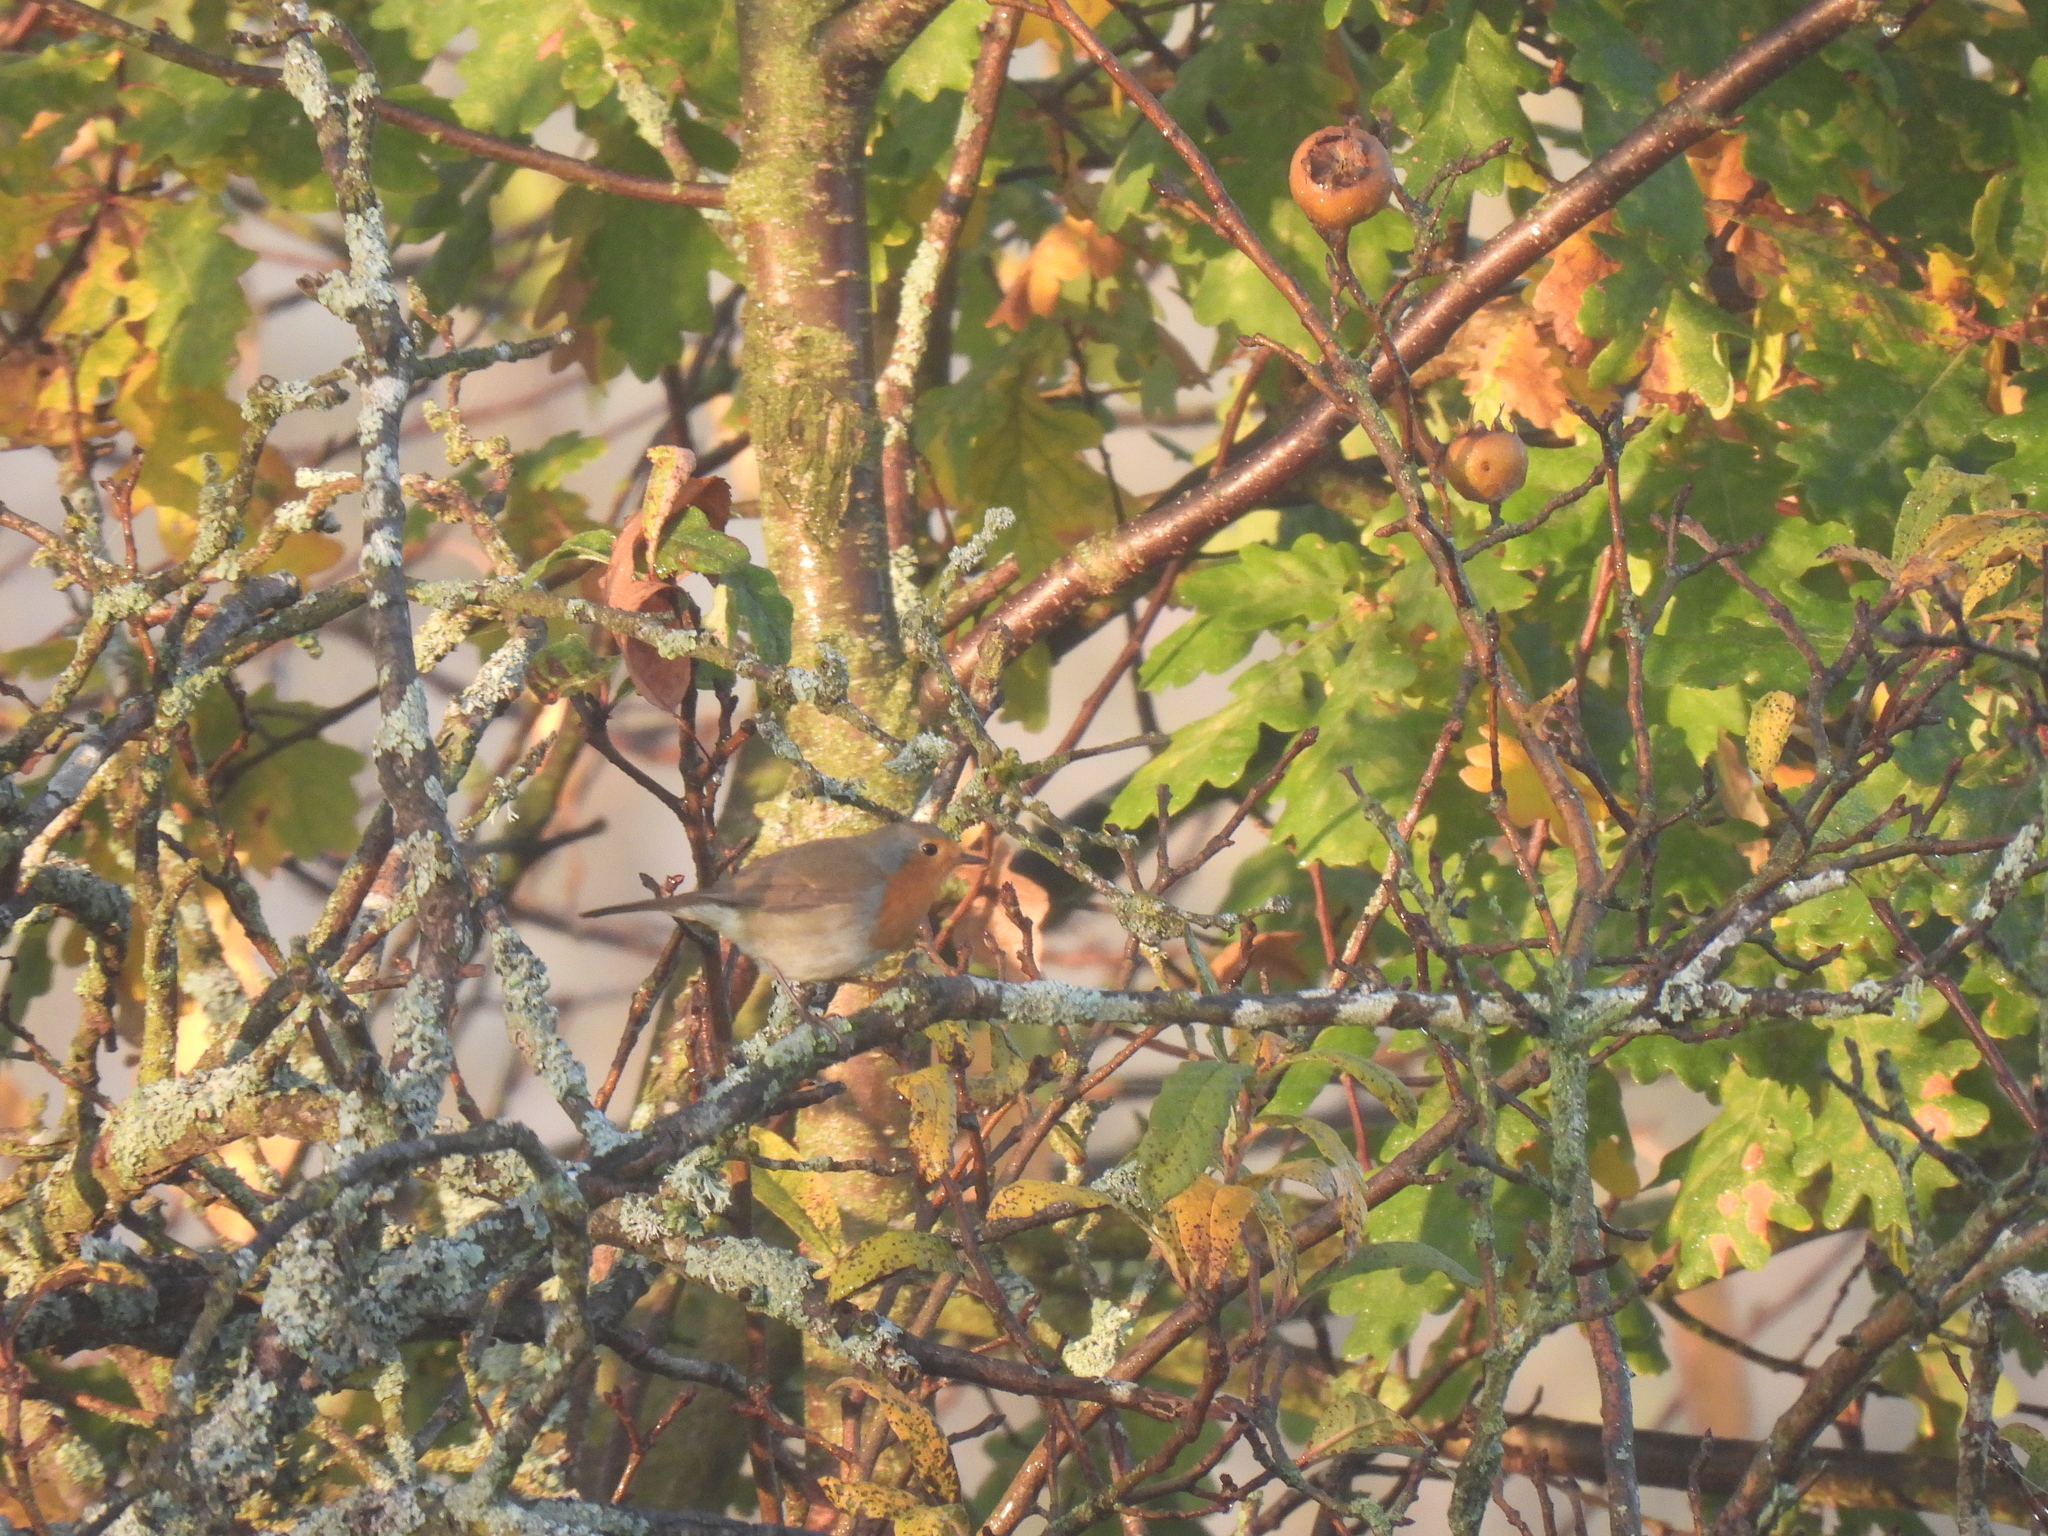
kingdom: Animalia
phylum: Chordata
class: Aves
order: Passeriformes
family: Muscicapidae
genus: Erithacus
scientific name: Erithacus rubecula
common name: European robin
